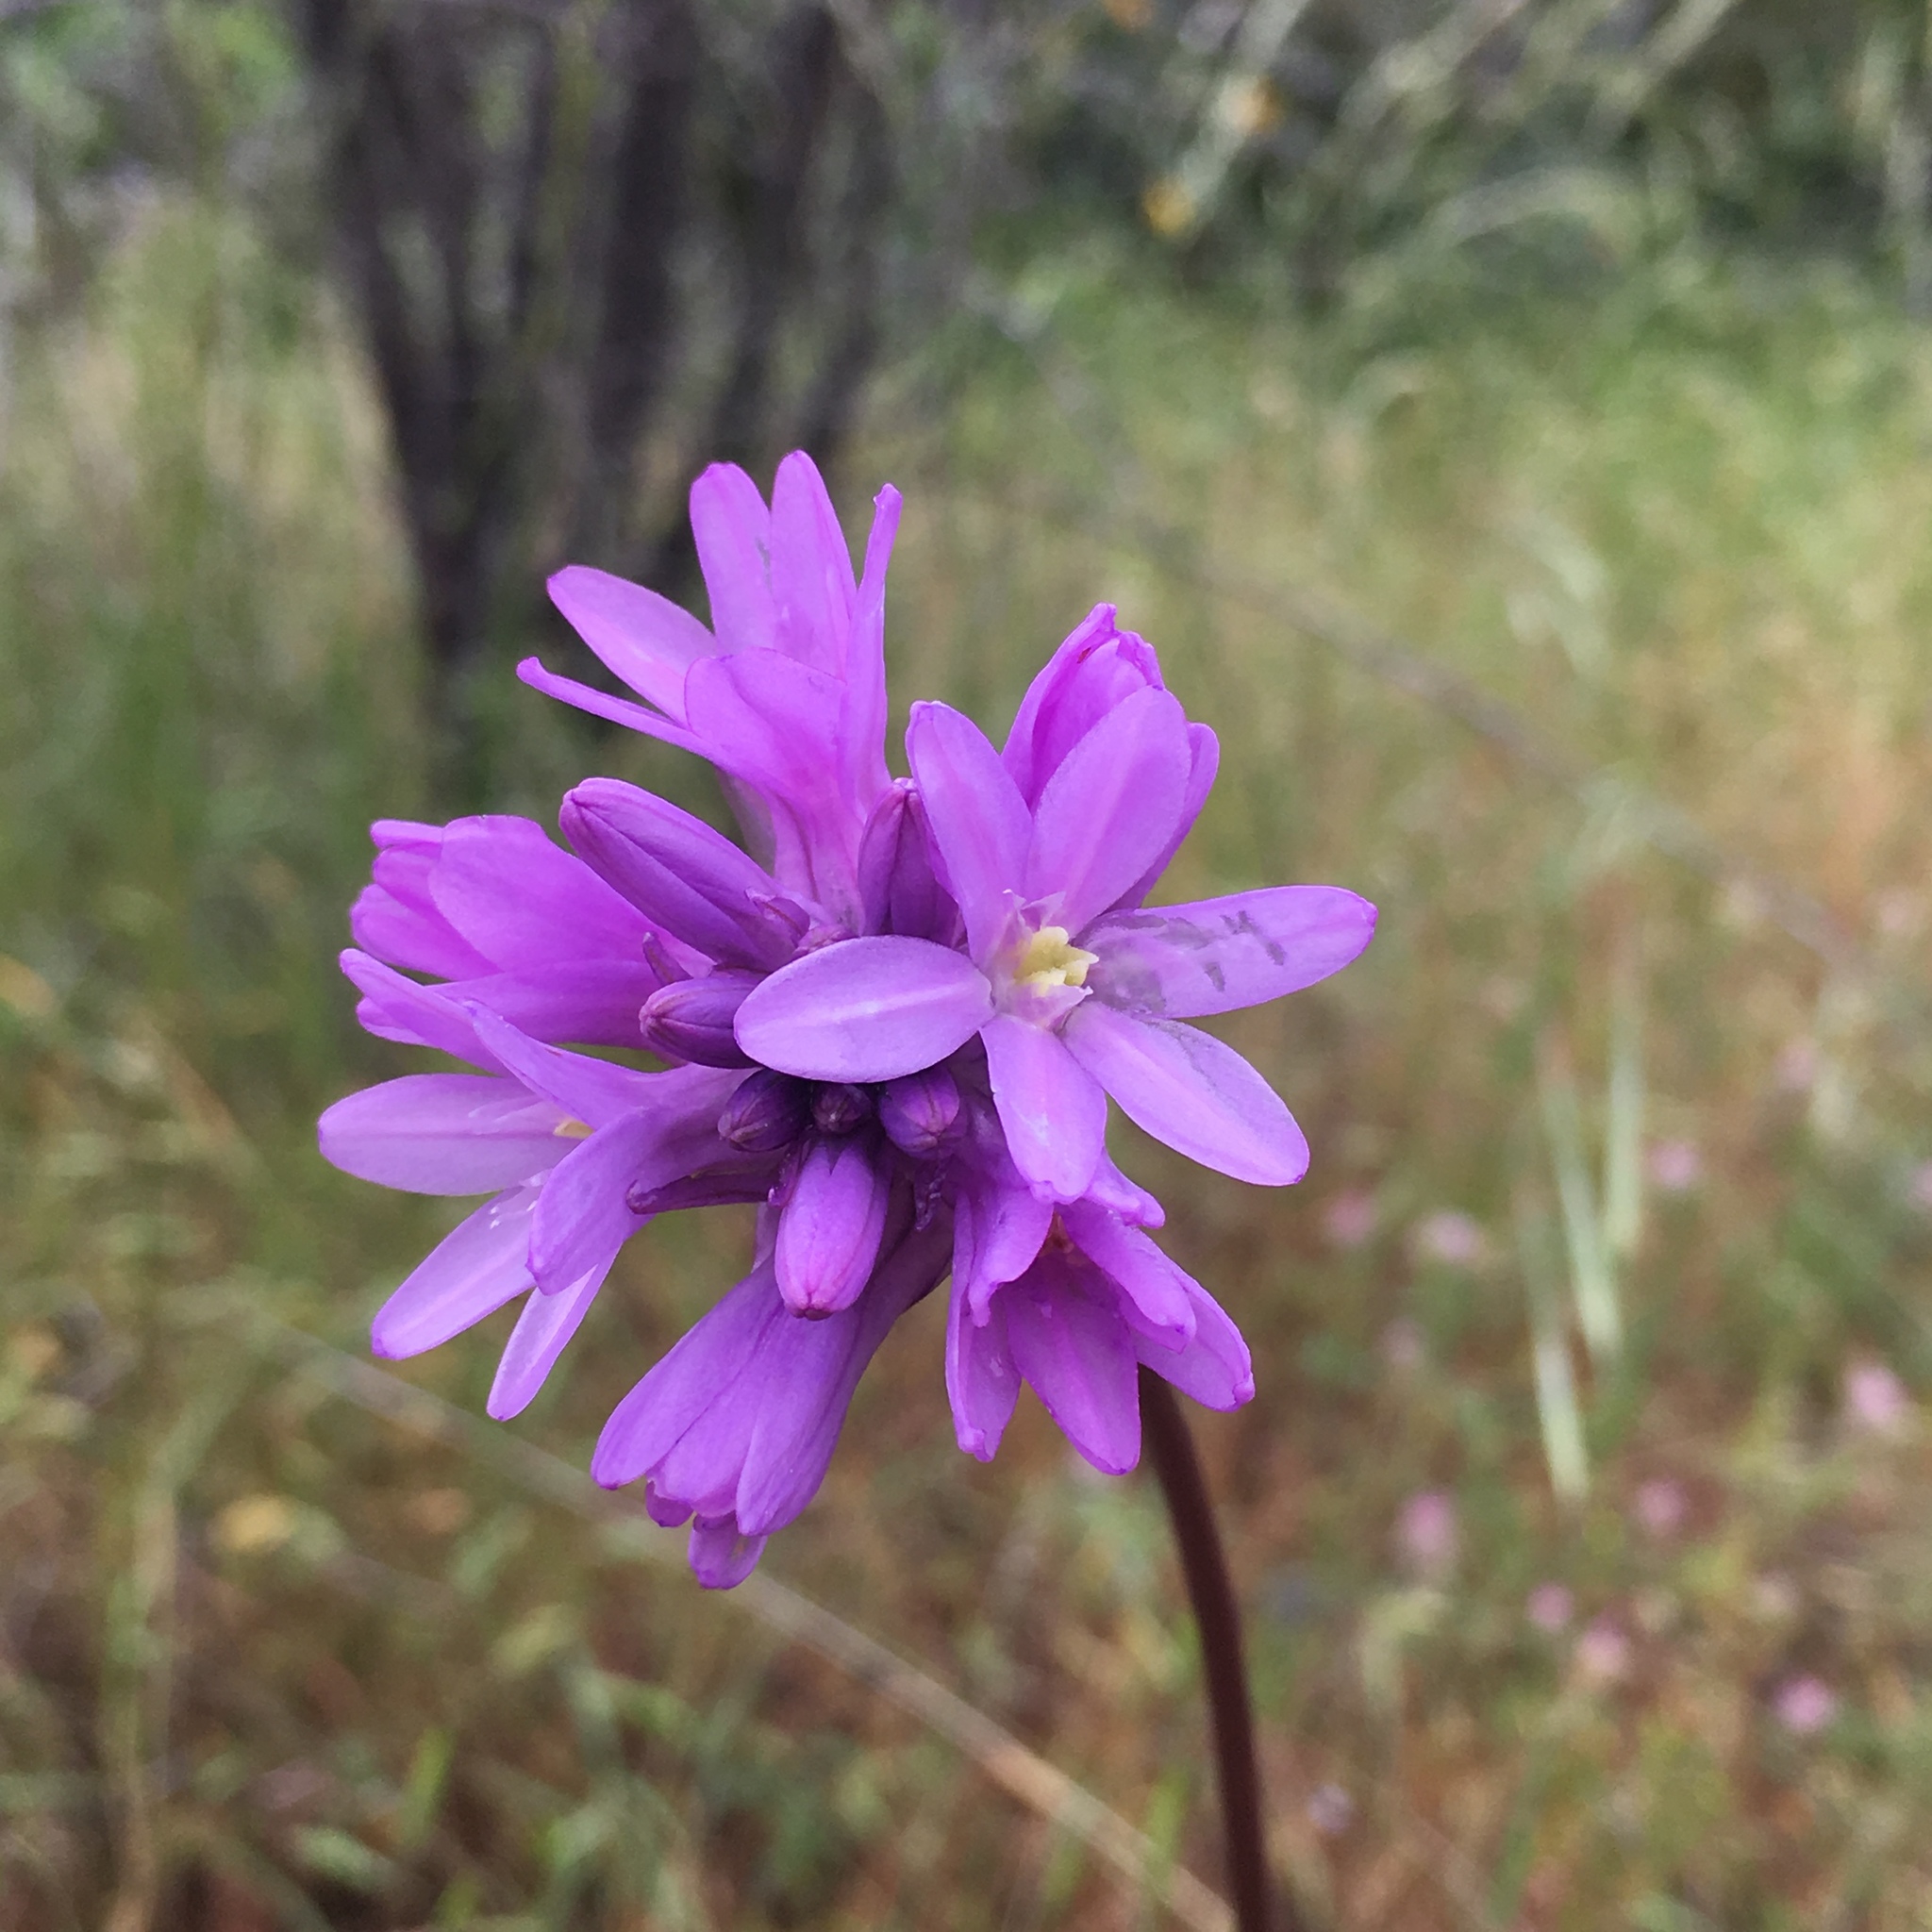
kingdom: Plantae
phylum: Tracheophyta
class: Liliopsida
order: Asparagales
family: Asparagaceae
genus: Dichelostemma
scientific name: Dichelostemma congestum
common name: Fork-tooth ookow
